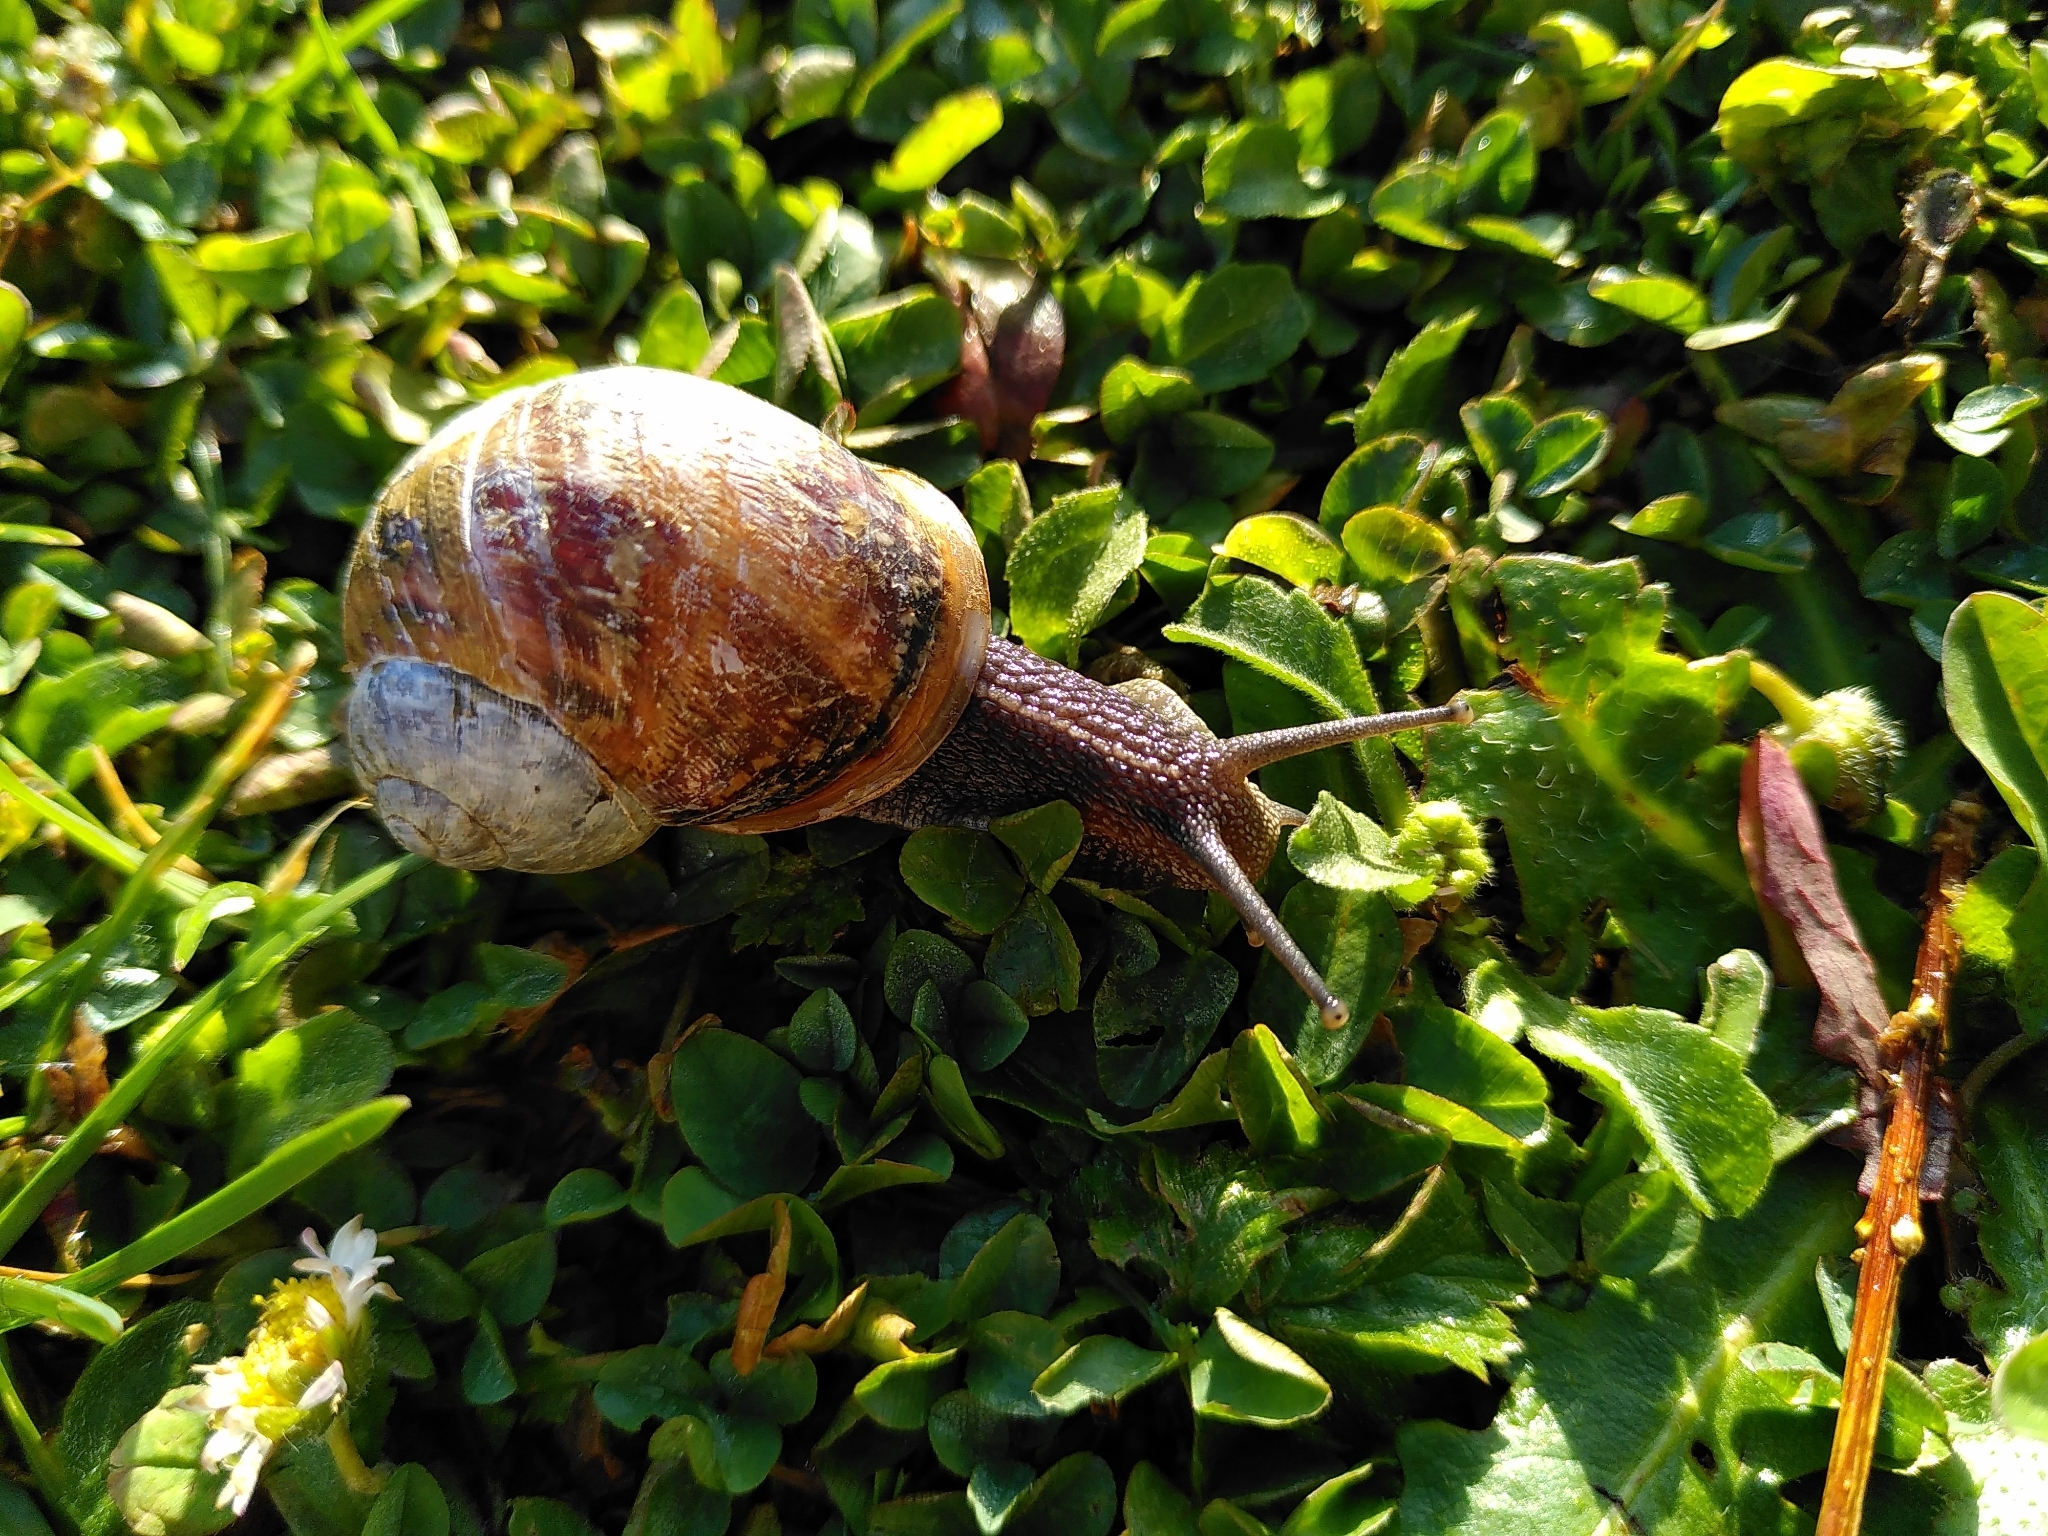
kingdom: Animalia
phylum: Mollusca
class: Gastropoda
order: Stylommatophora
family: Helicidae
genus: Cornu
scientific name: Cornu aspersum
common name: Brown garden snail
